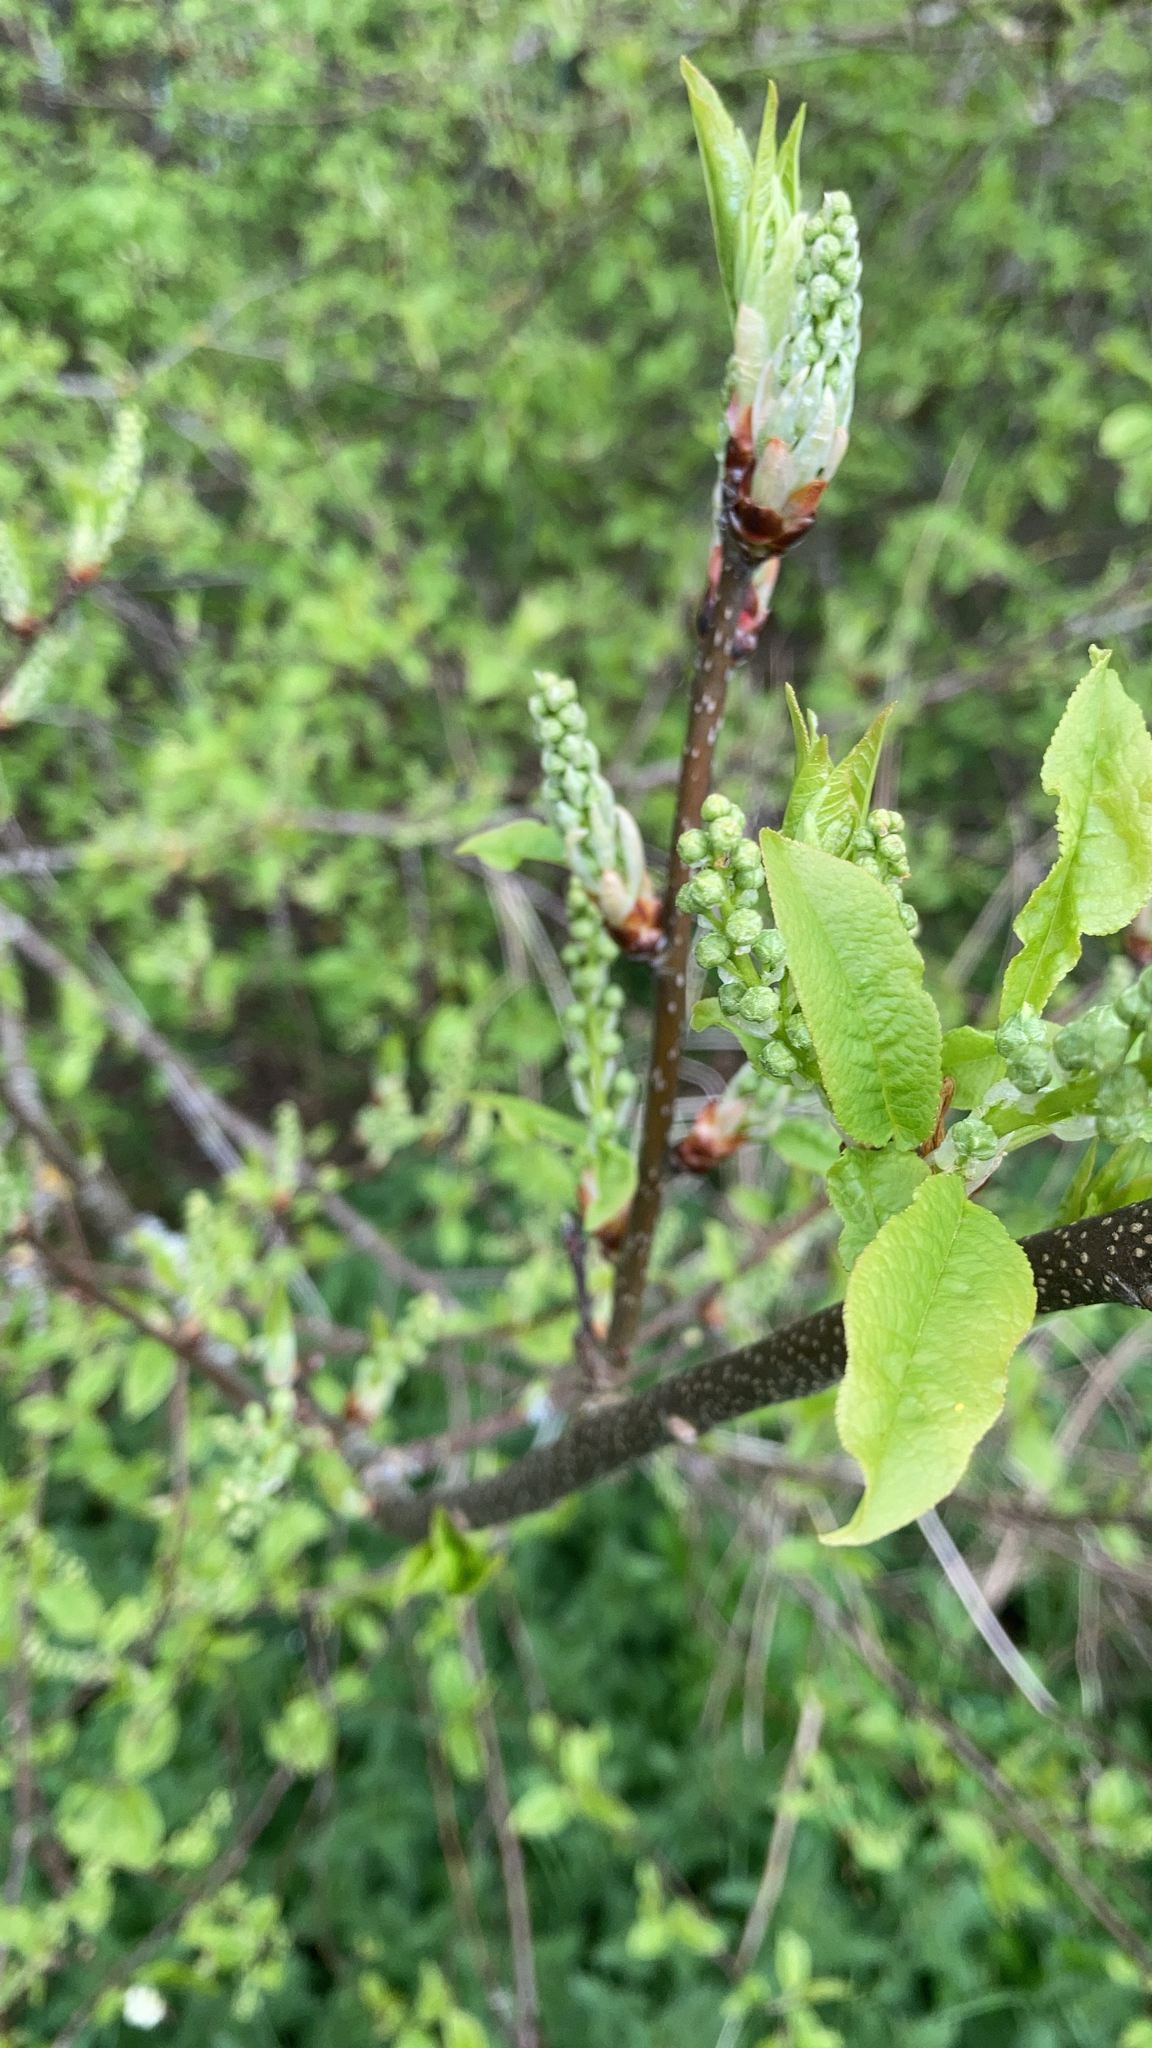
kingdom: Plantae
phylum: Tracheophyta
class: Magnoliopsida
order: Rosales
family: Rosaceae
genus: Prunus
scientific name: Prunus padus
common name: Bird cherry
